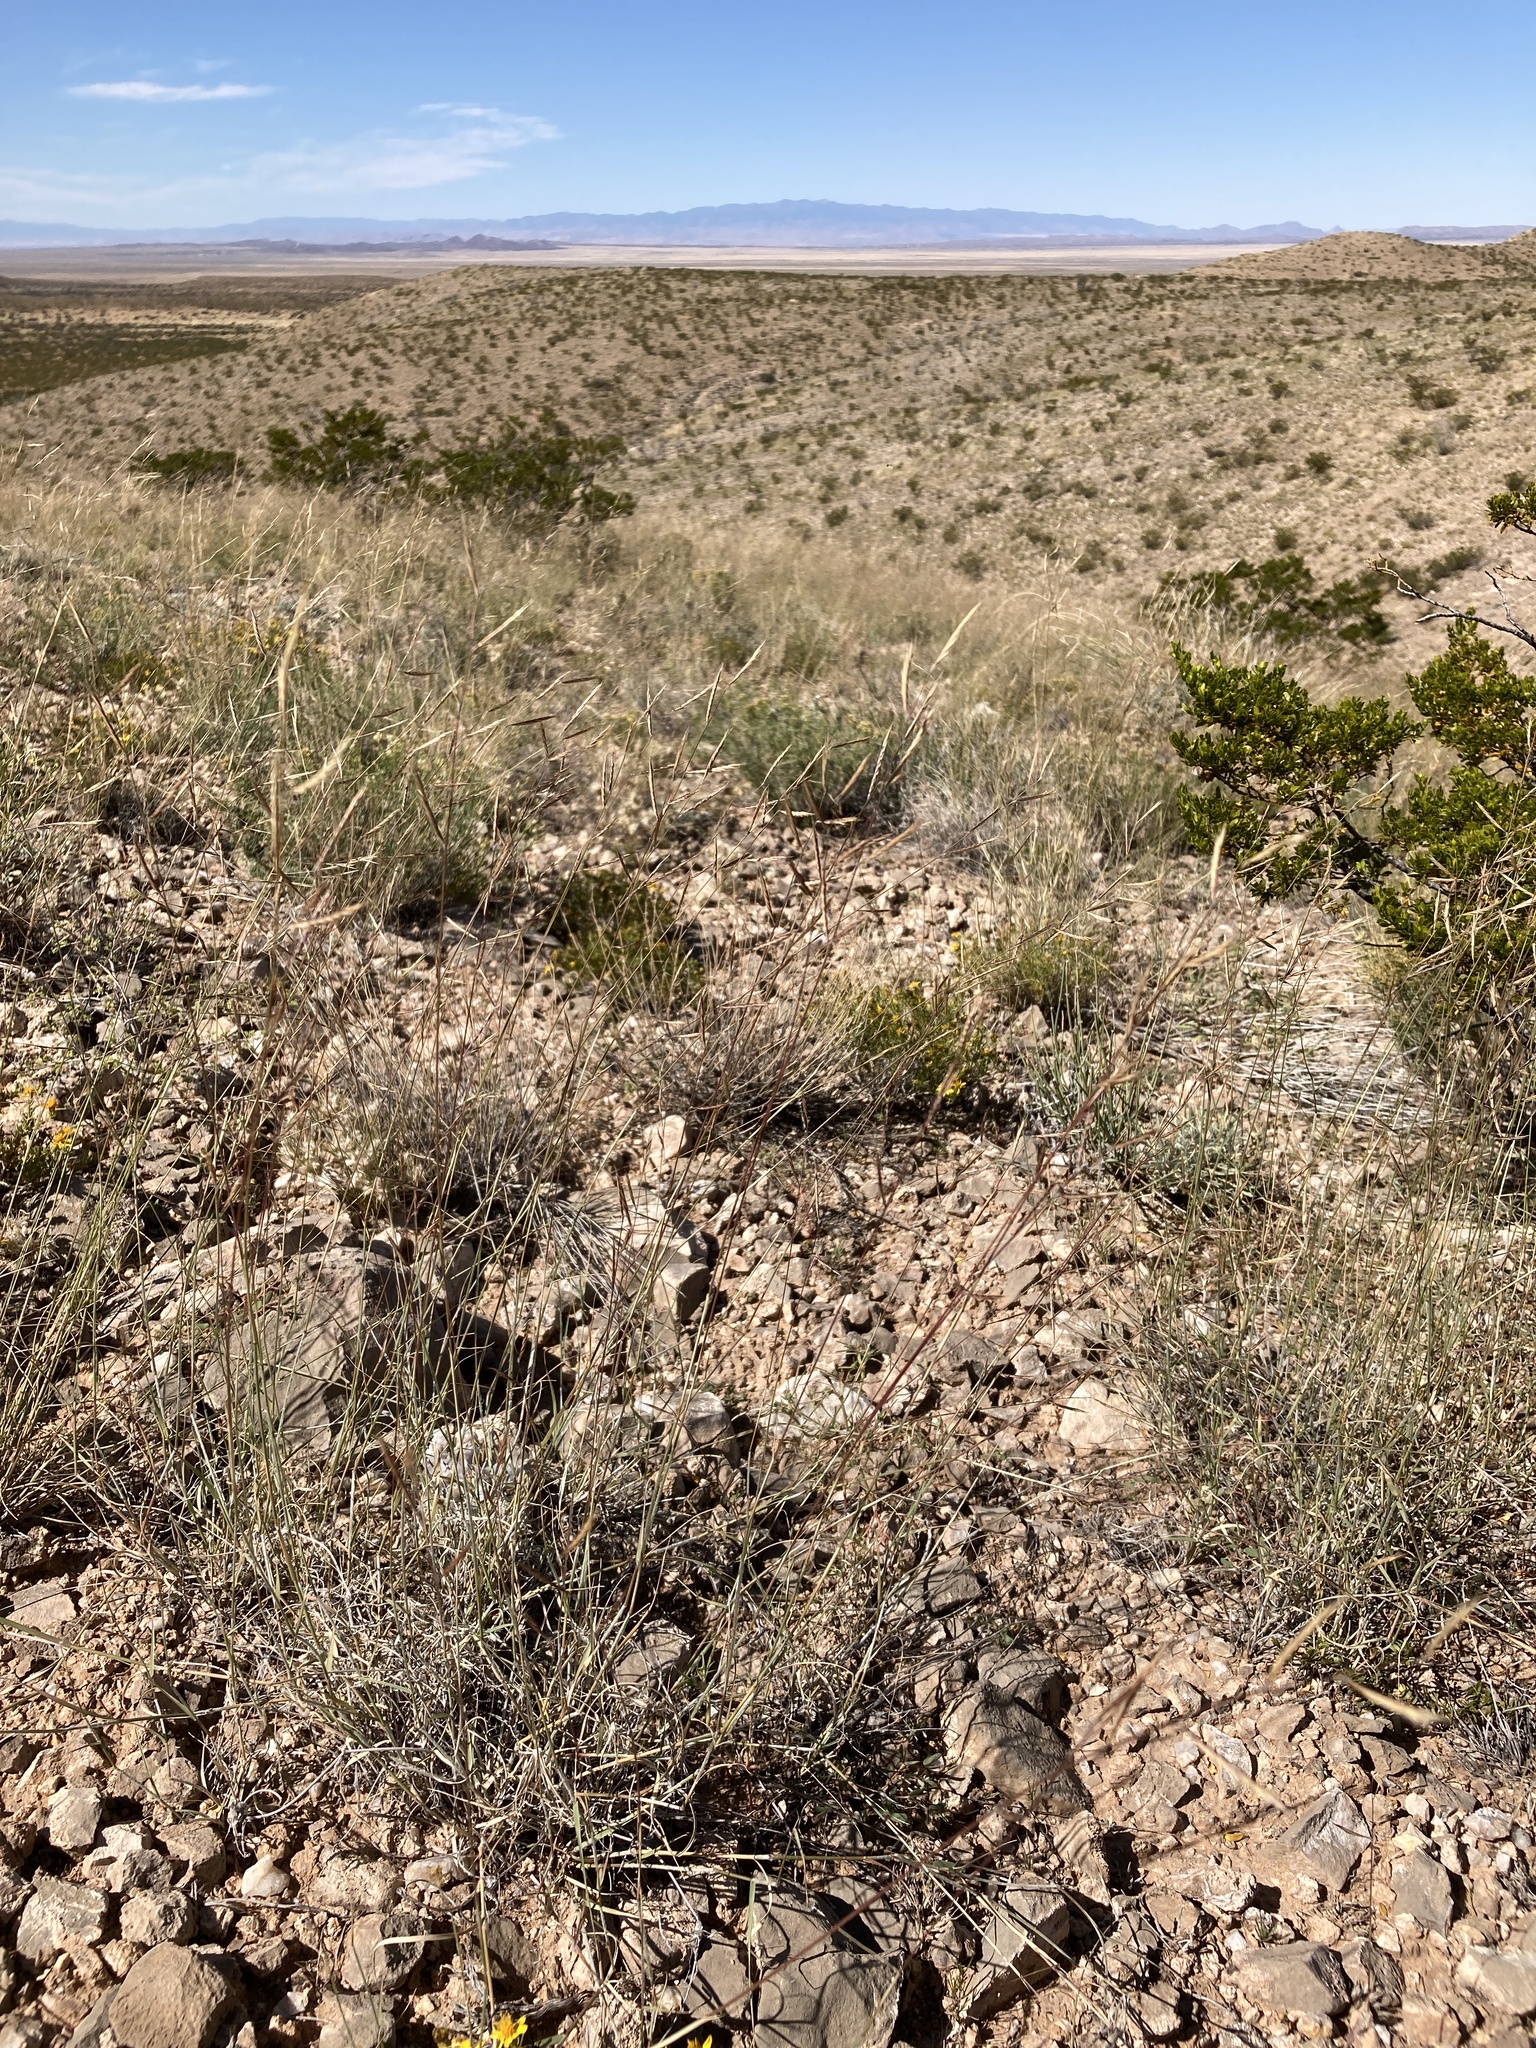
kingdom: Plantae
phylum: Tracheophyta
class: Liliopsida
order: Poales
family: Poaceae
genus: Bouteloua
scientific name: Bouteloua eriopoda
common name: Woolly foot grama
